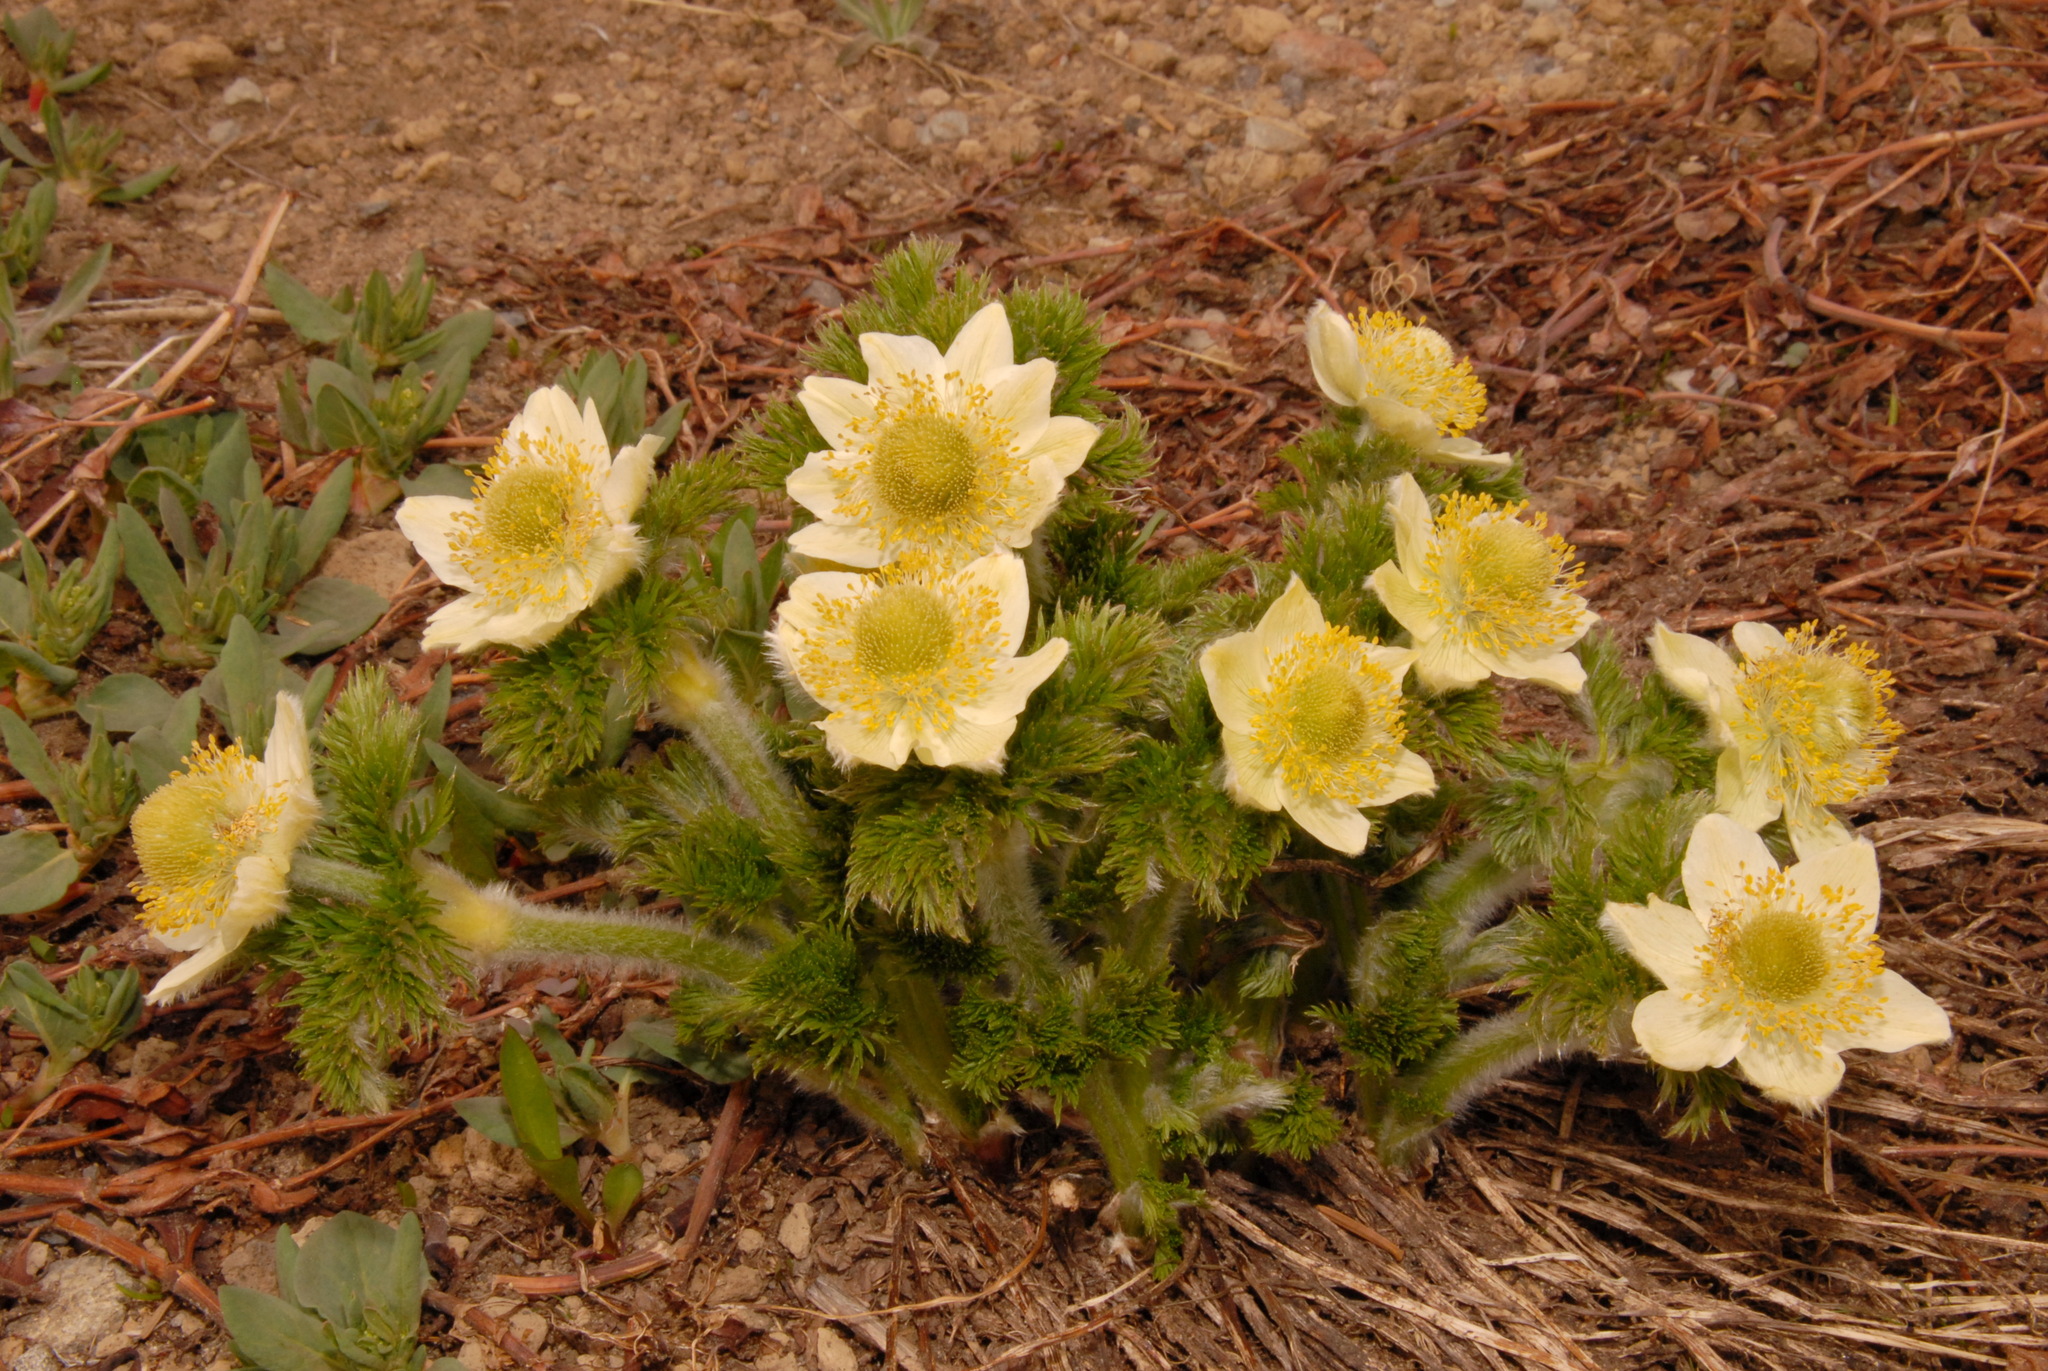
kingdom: Plantae
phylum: Tracheophyta
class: Magnoliopsida
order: Ranunculales
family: Ranunculaceae
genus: Pulsatilla
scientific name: Pulsatilla occidentalis
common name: Mountain pasqueflower
